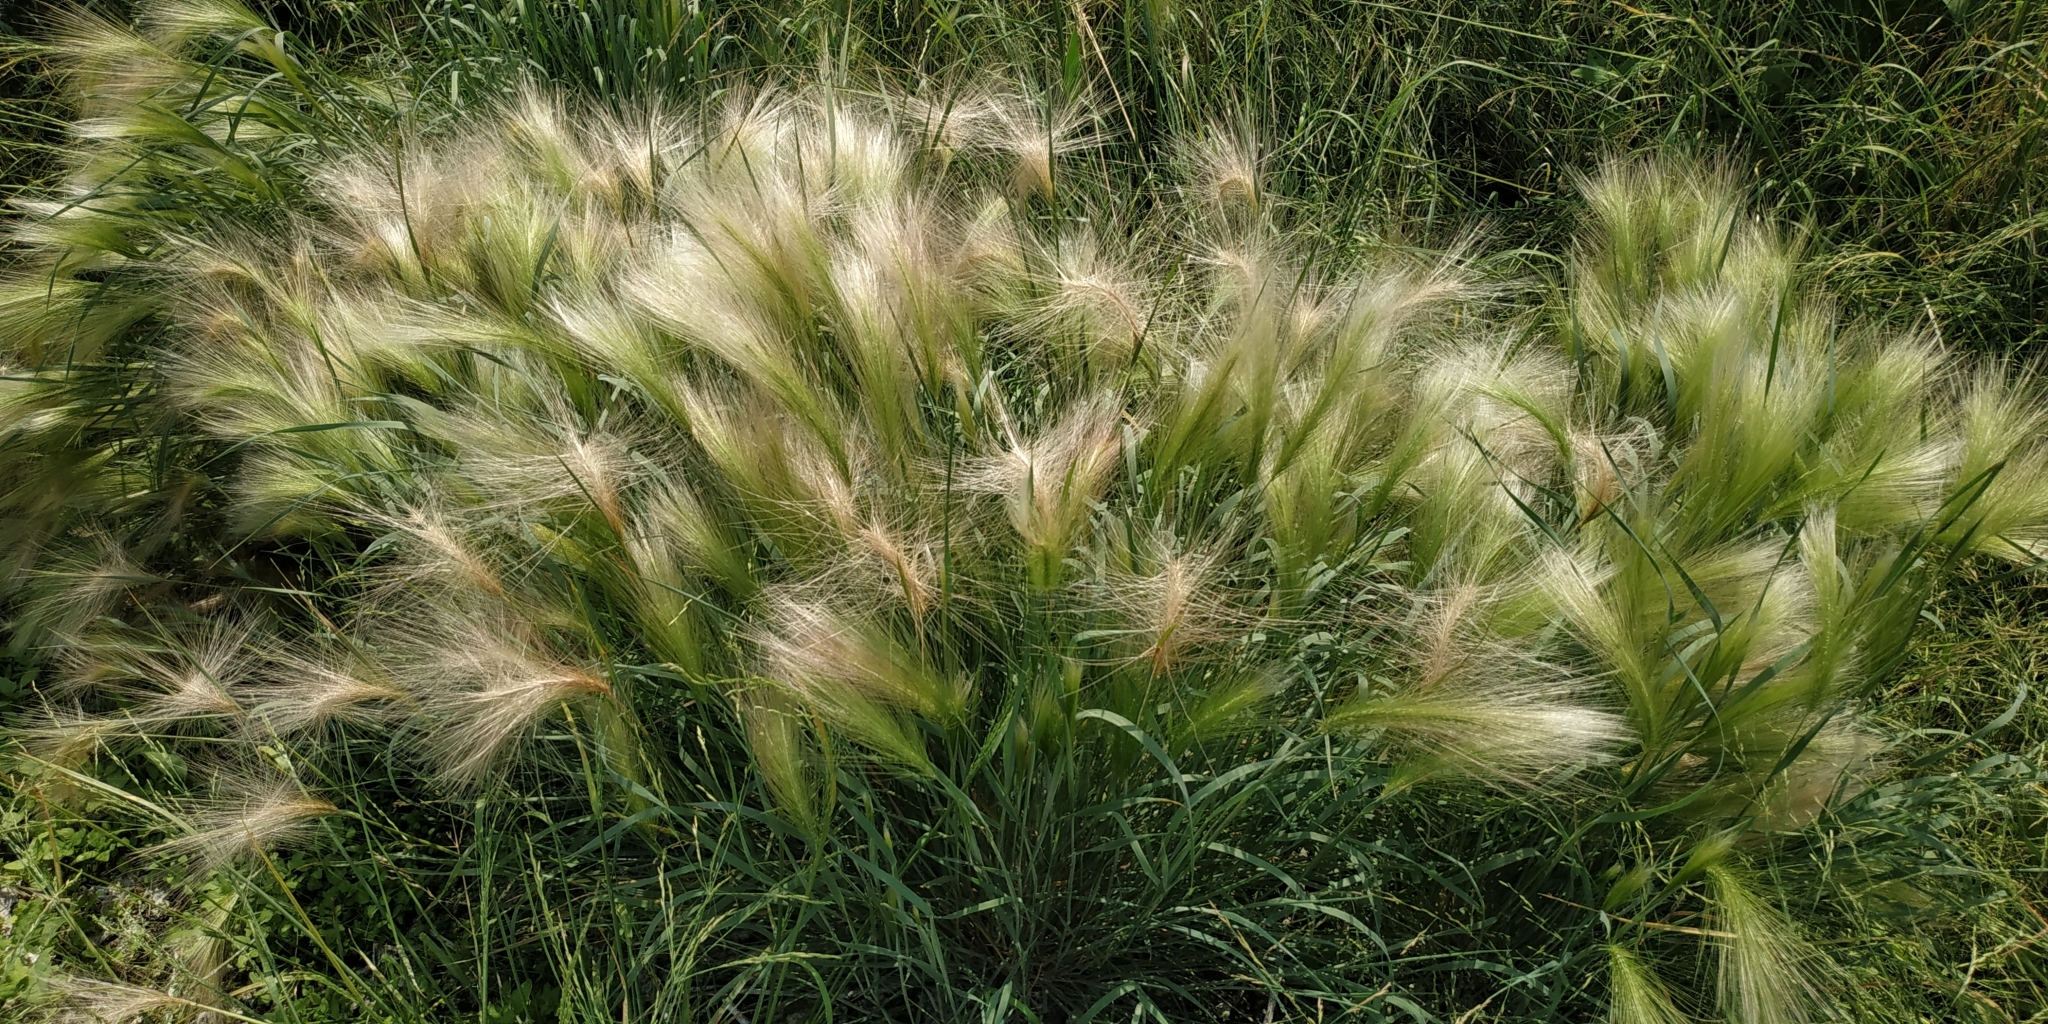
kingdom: Plantae
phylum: Tracheophyta
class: Liliopsida
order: Poales
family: Poaceae
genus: Hordeum
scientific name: Hordeum jubatum
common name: Foxtail barley
